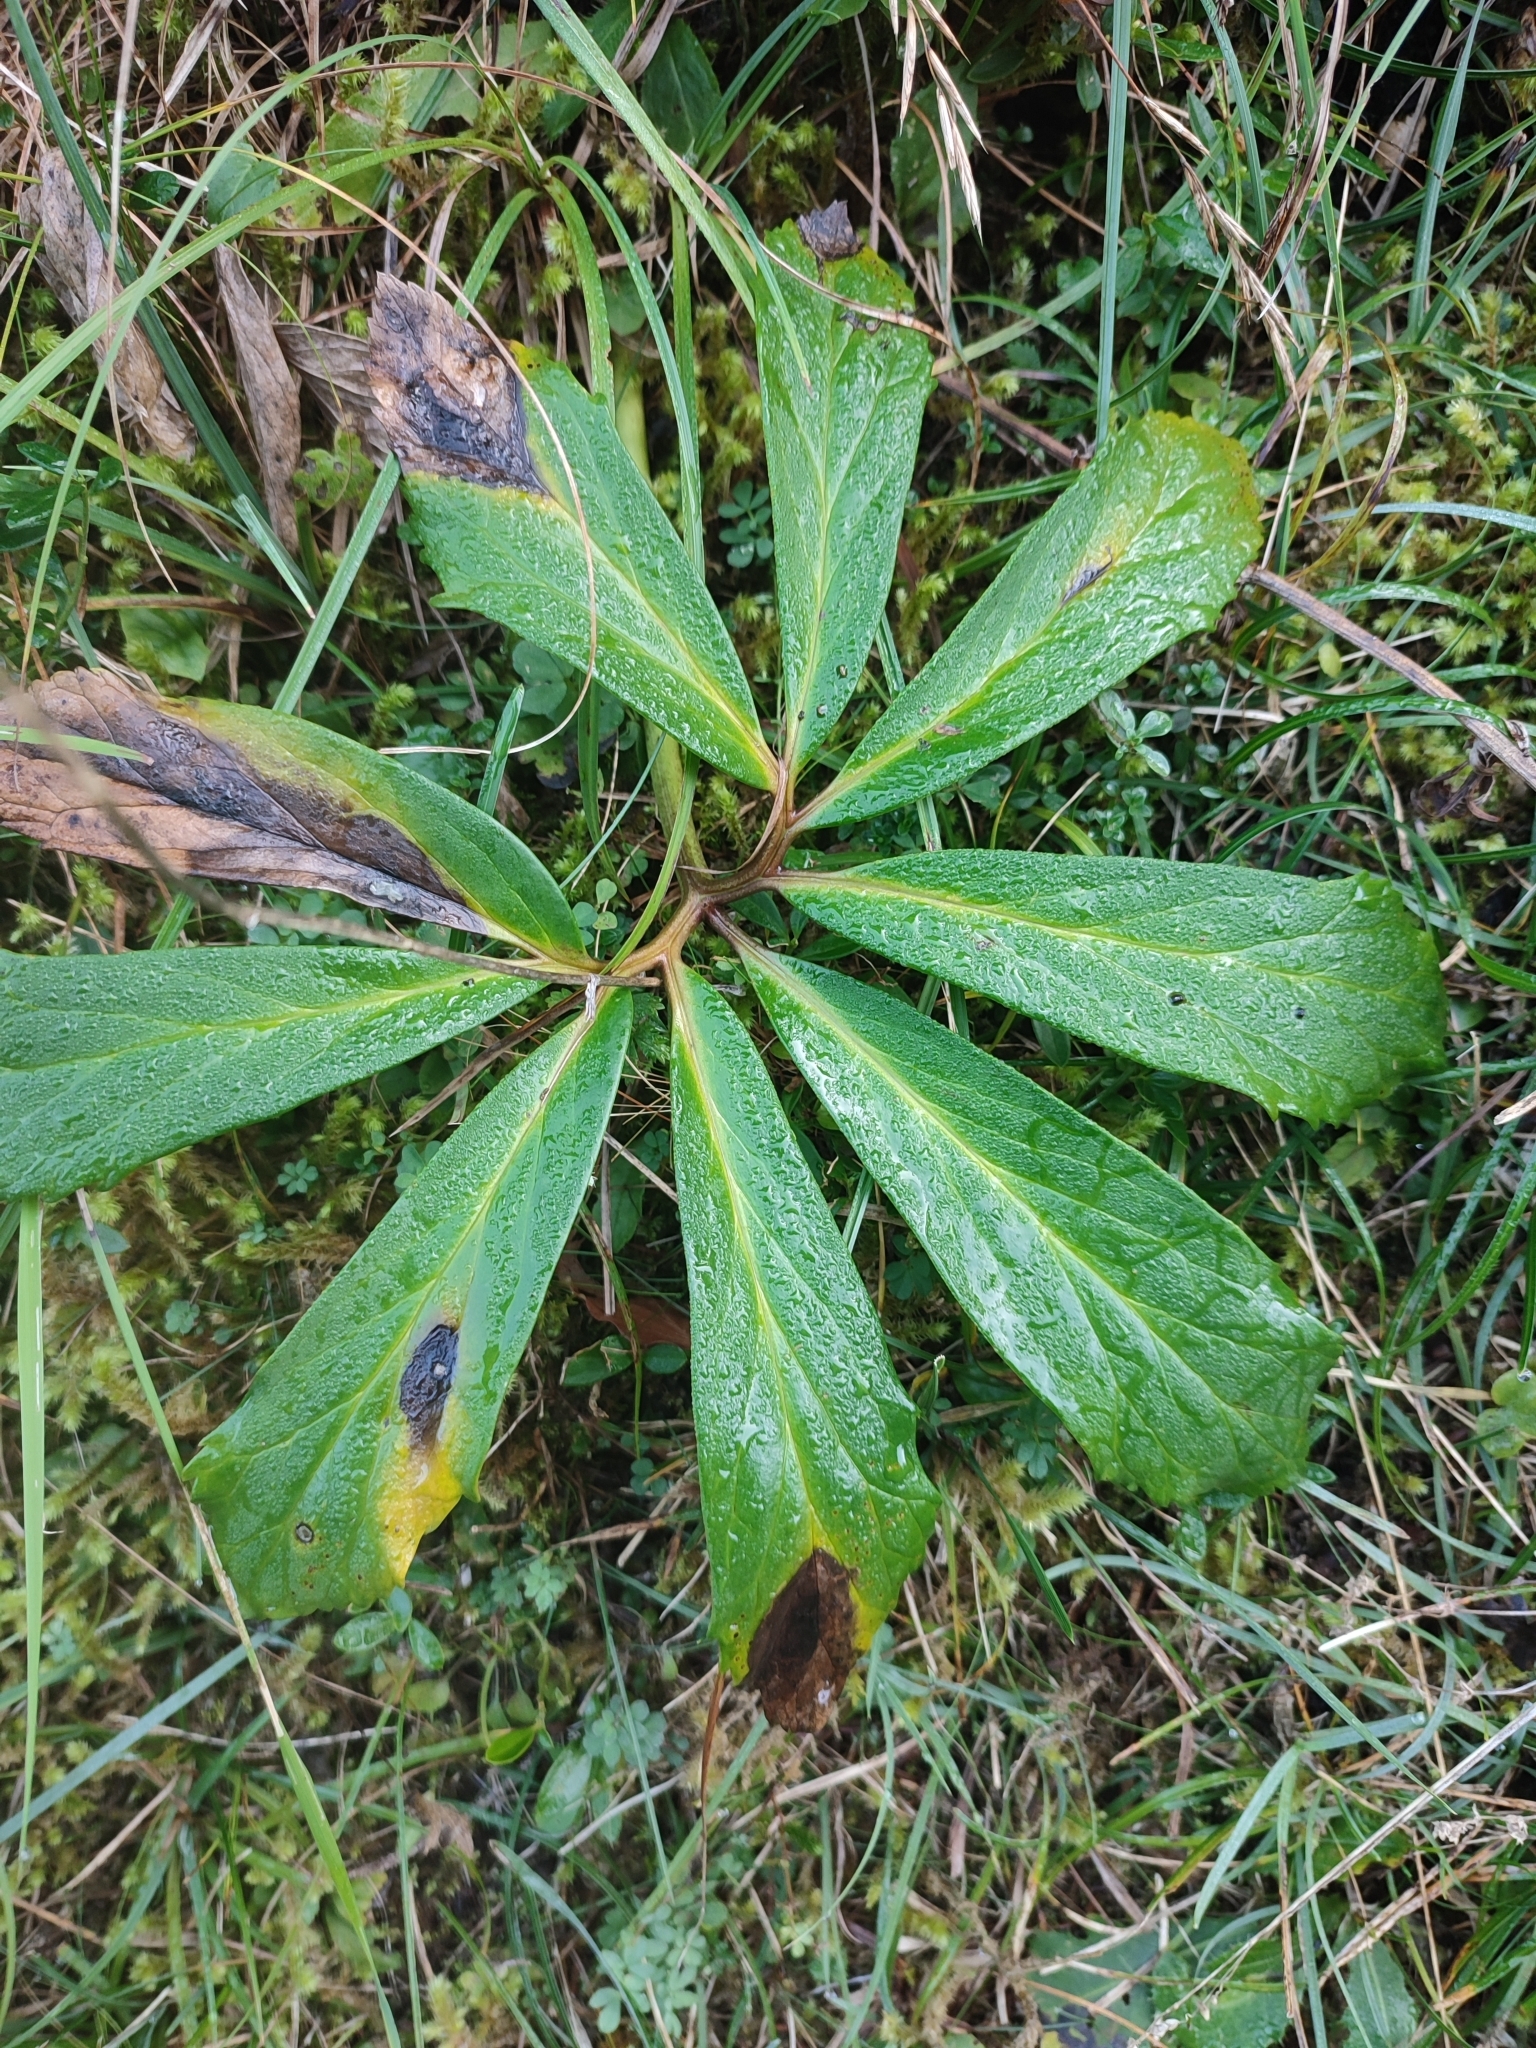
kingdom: Plantae
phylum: Tracheophyta
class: Magnoliopsida
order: Ranunculales
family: Ranunculaceae
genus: Helleborus
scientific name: Helleborus niger
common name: Black hellebore
